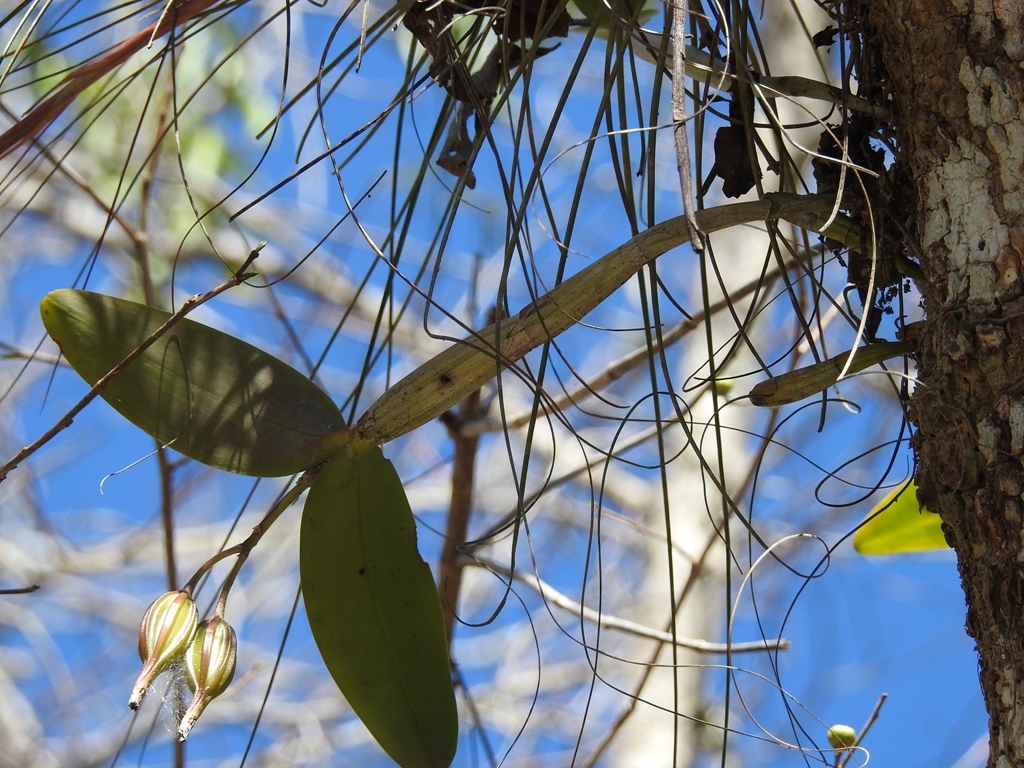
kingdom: Plantae
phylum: Tracheophyta
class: Liliopsida
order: Asparagales
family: Orchidaceae
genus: Guarianthe
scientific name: Guarianthe aurantiaca
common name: Orange cattleya
